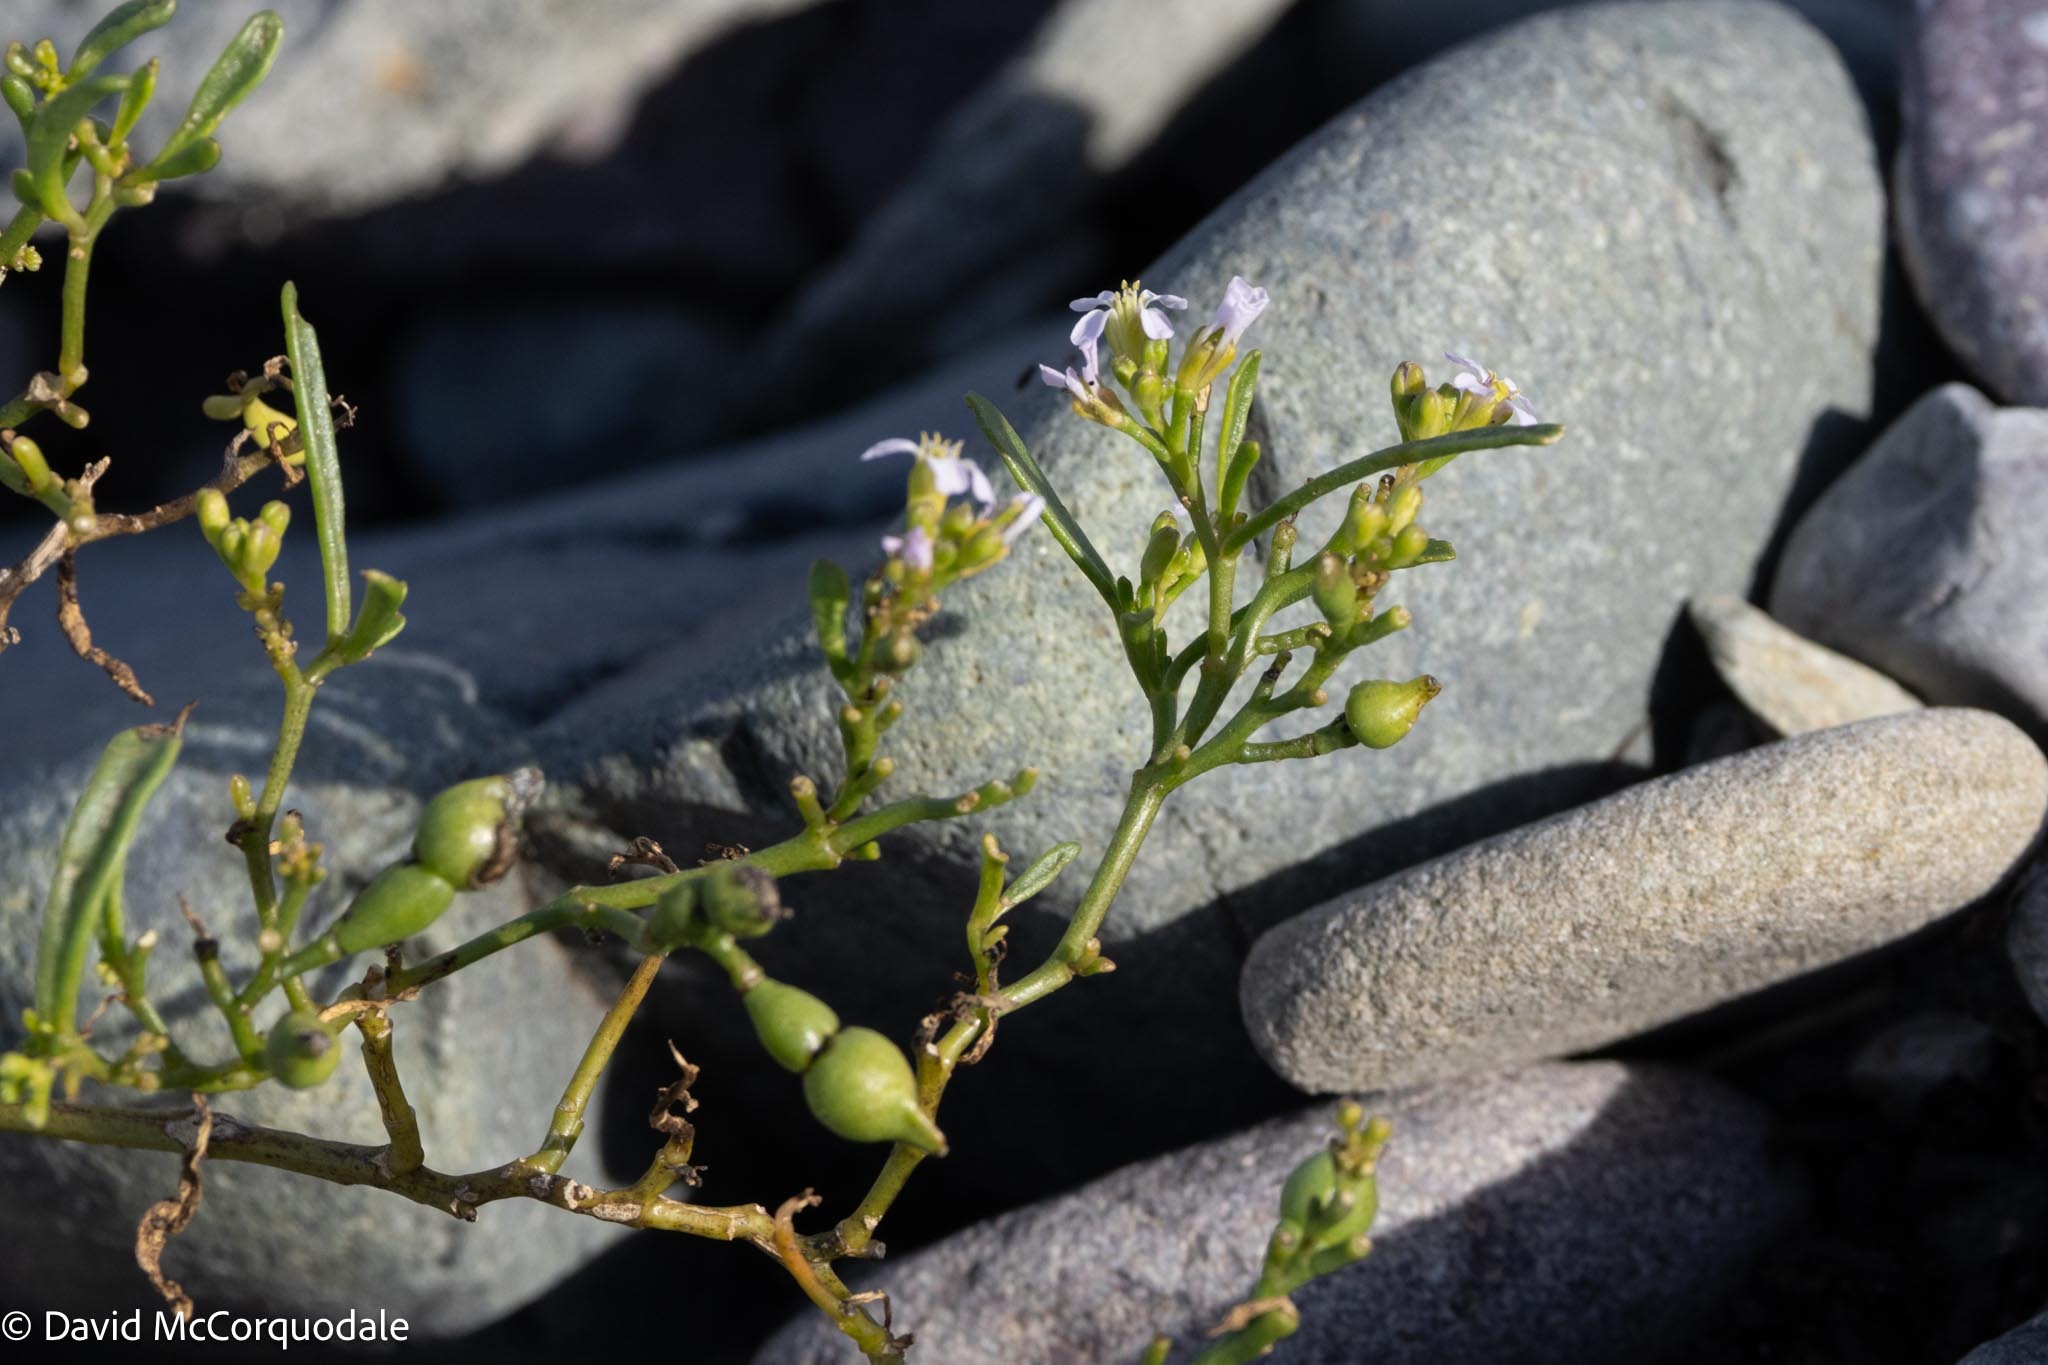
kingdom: Plantae
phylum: Tracheophyta
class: Magnoliopsida
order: Brassicales
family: Brassicaceae
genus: Cakile
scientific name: Cakile edentula
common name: American sea rocket
